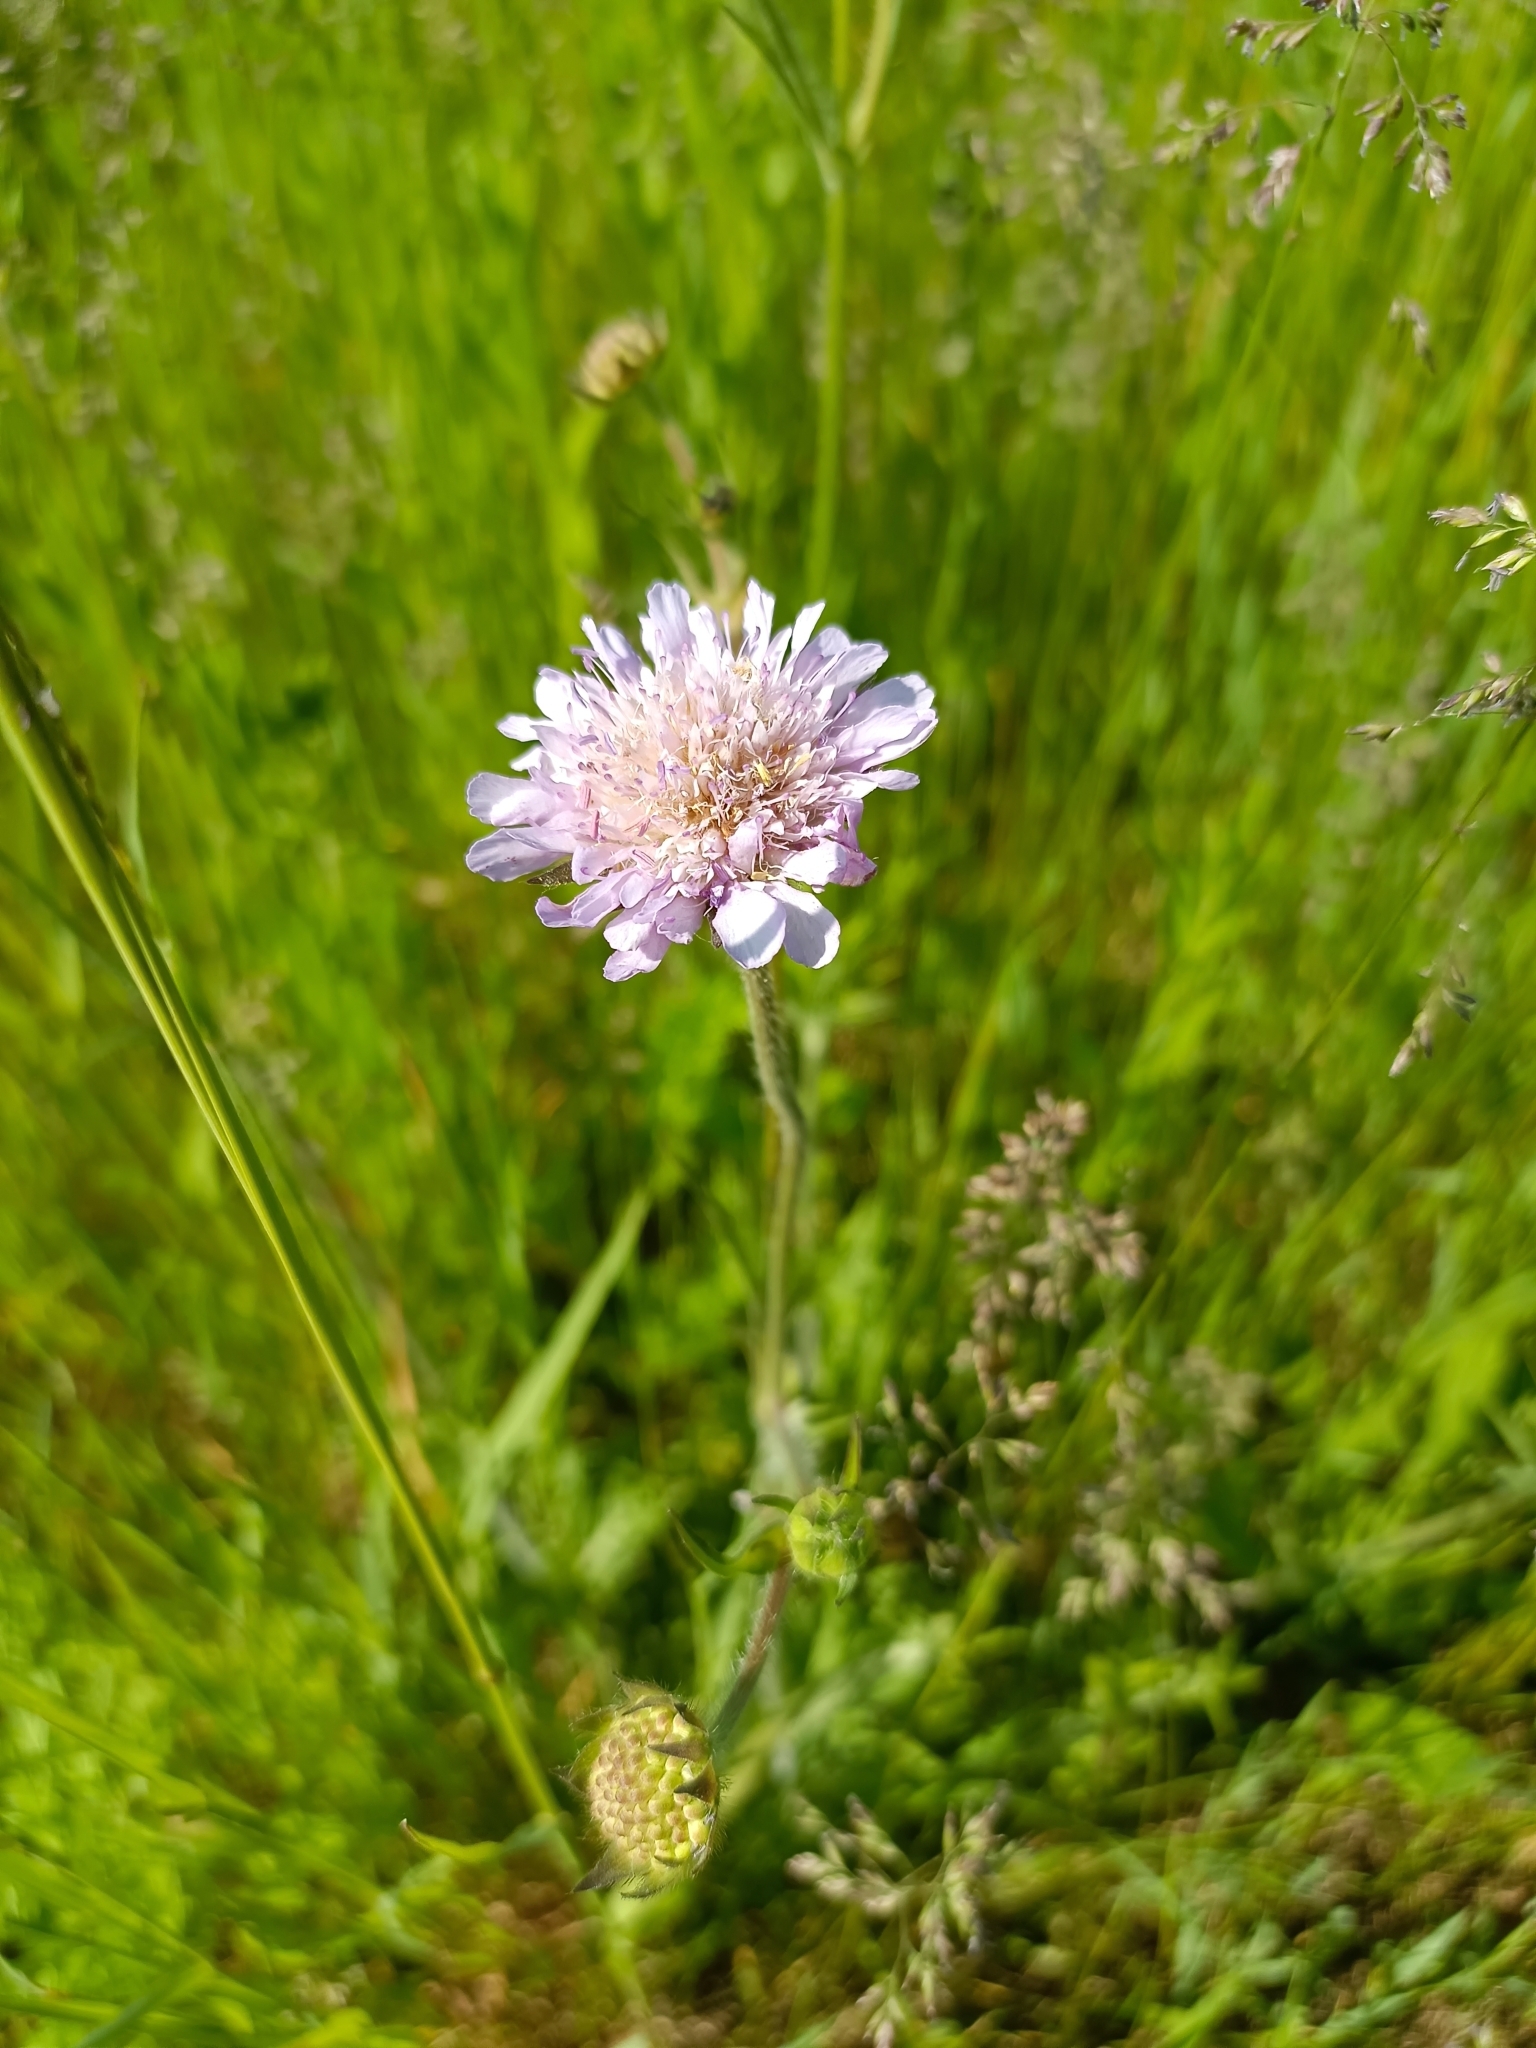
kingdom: Plantae
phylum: Tracheophyta
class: Magnoliopsida
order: Dipsacales
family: Caprifoliaceae
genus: Knautia
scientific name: Knautia arvensis
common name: Field scabiosa
